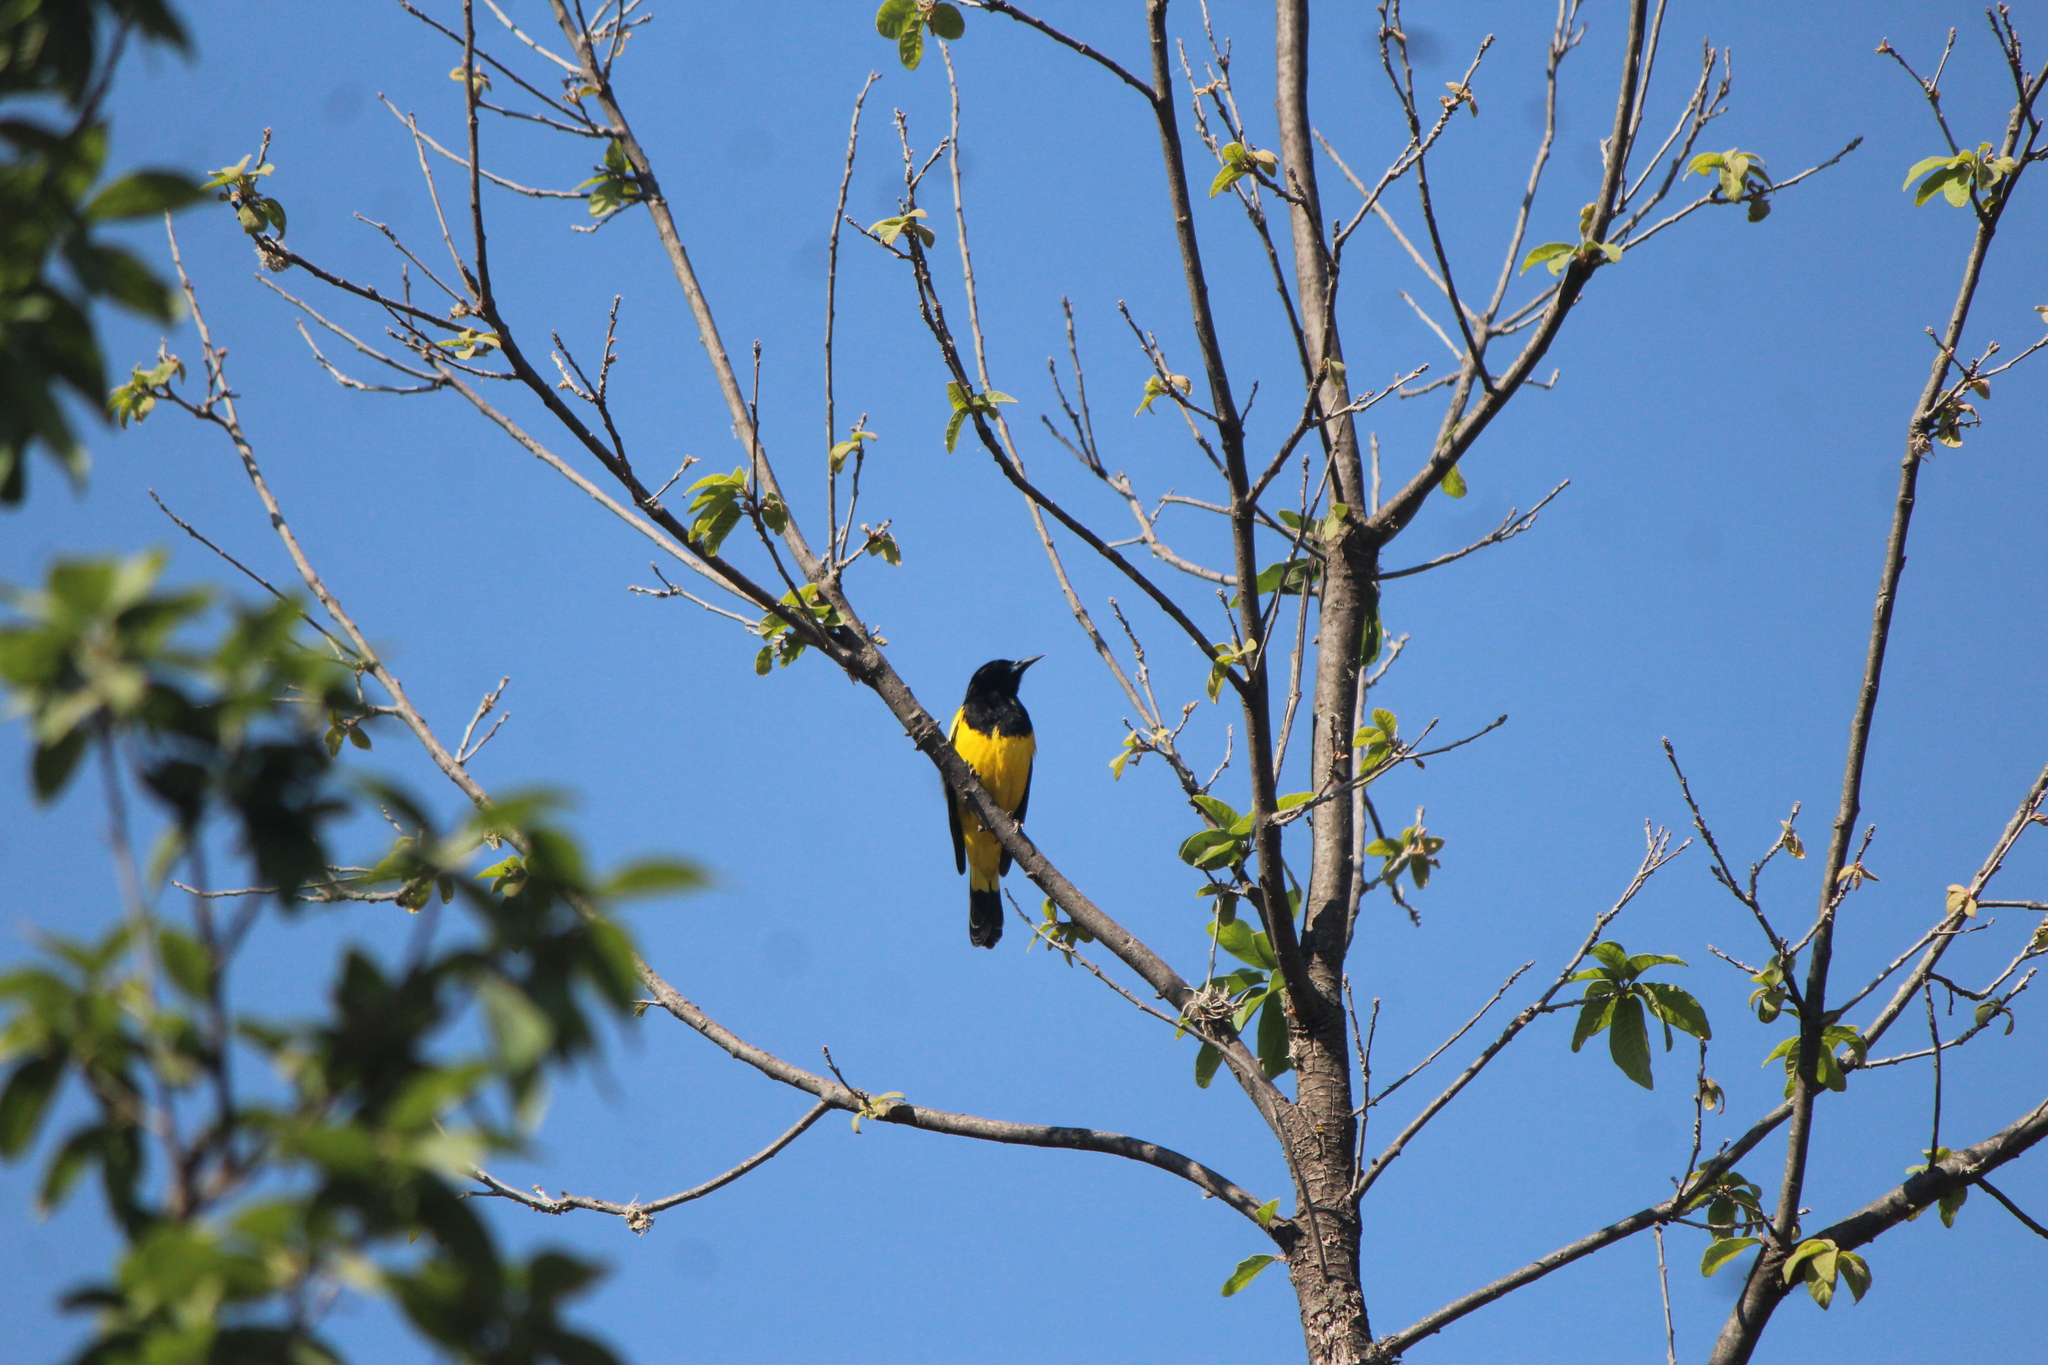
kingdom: Animalia
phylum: Chordata
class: Aves
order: Passeriformes
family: Icteridae
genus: Icterus
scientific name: Icterus parisorum
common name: Scott's oriole
